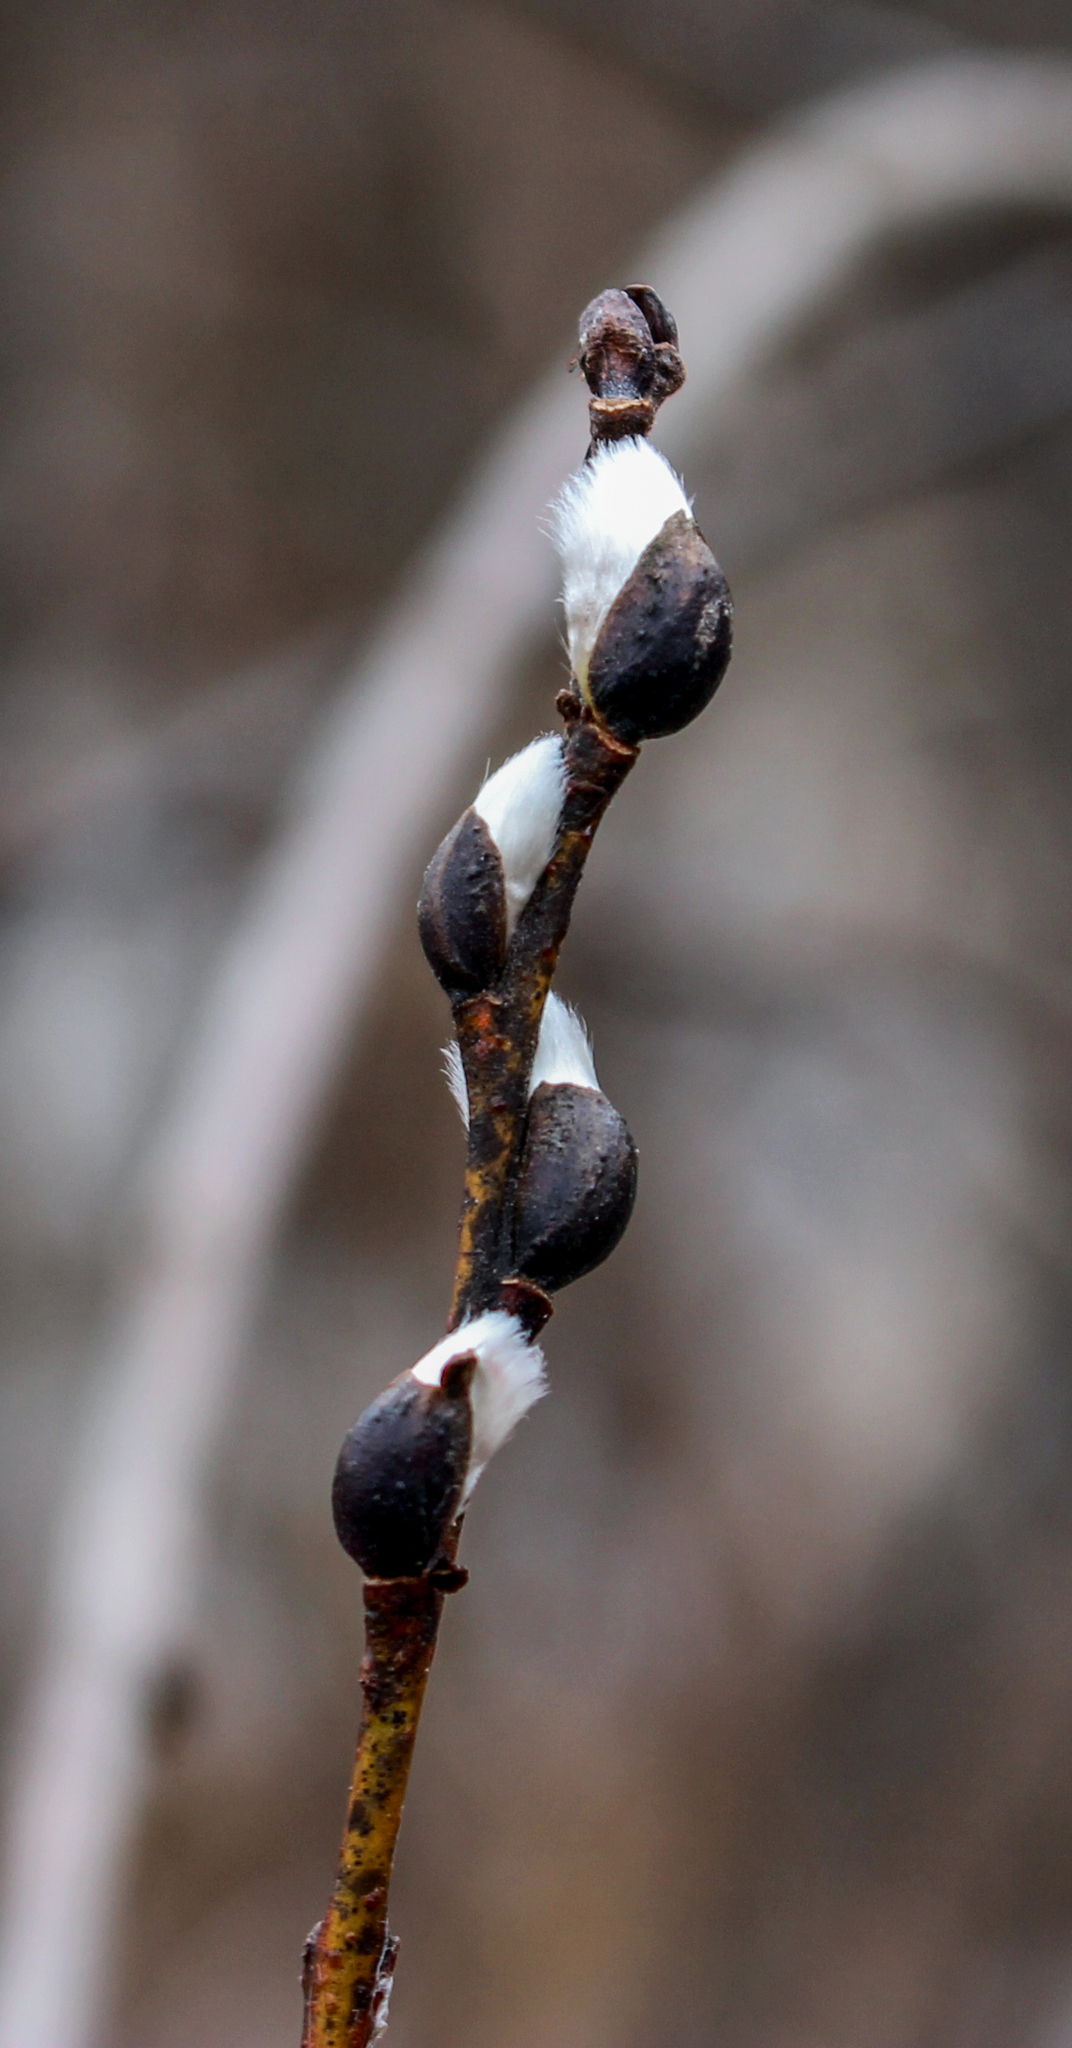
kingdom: Plantae
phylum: Tracheophyta
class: Magnoliopsida
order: Malpighiales
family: Salicaceae
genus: Salix
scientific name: Salix discolor
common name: Glaucous willow
